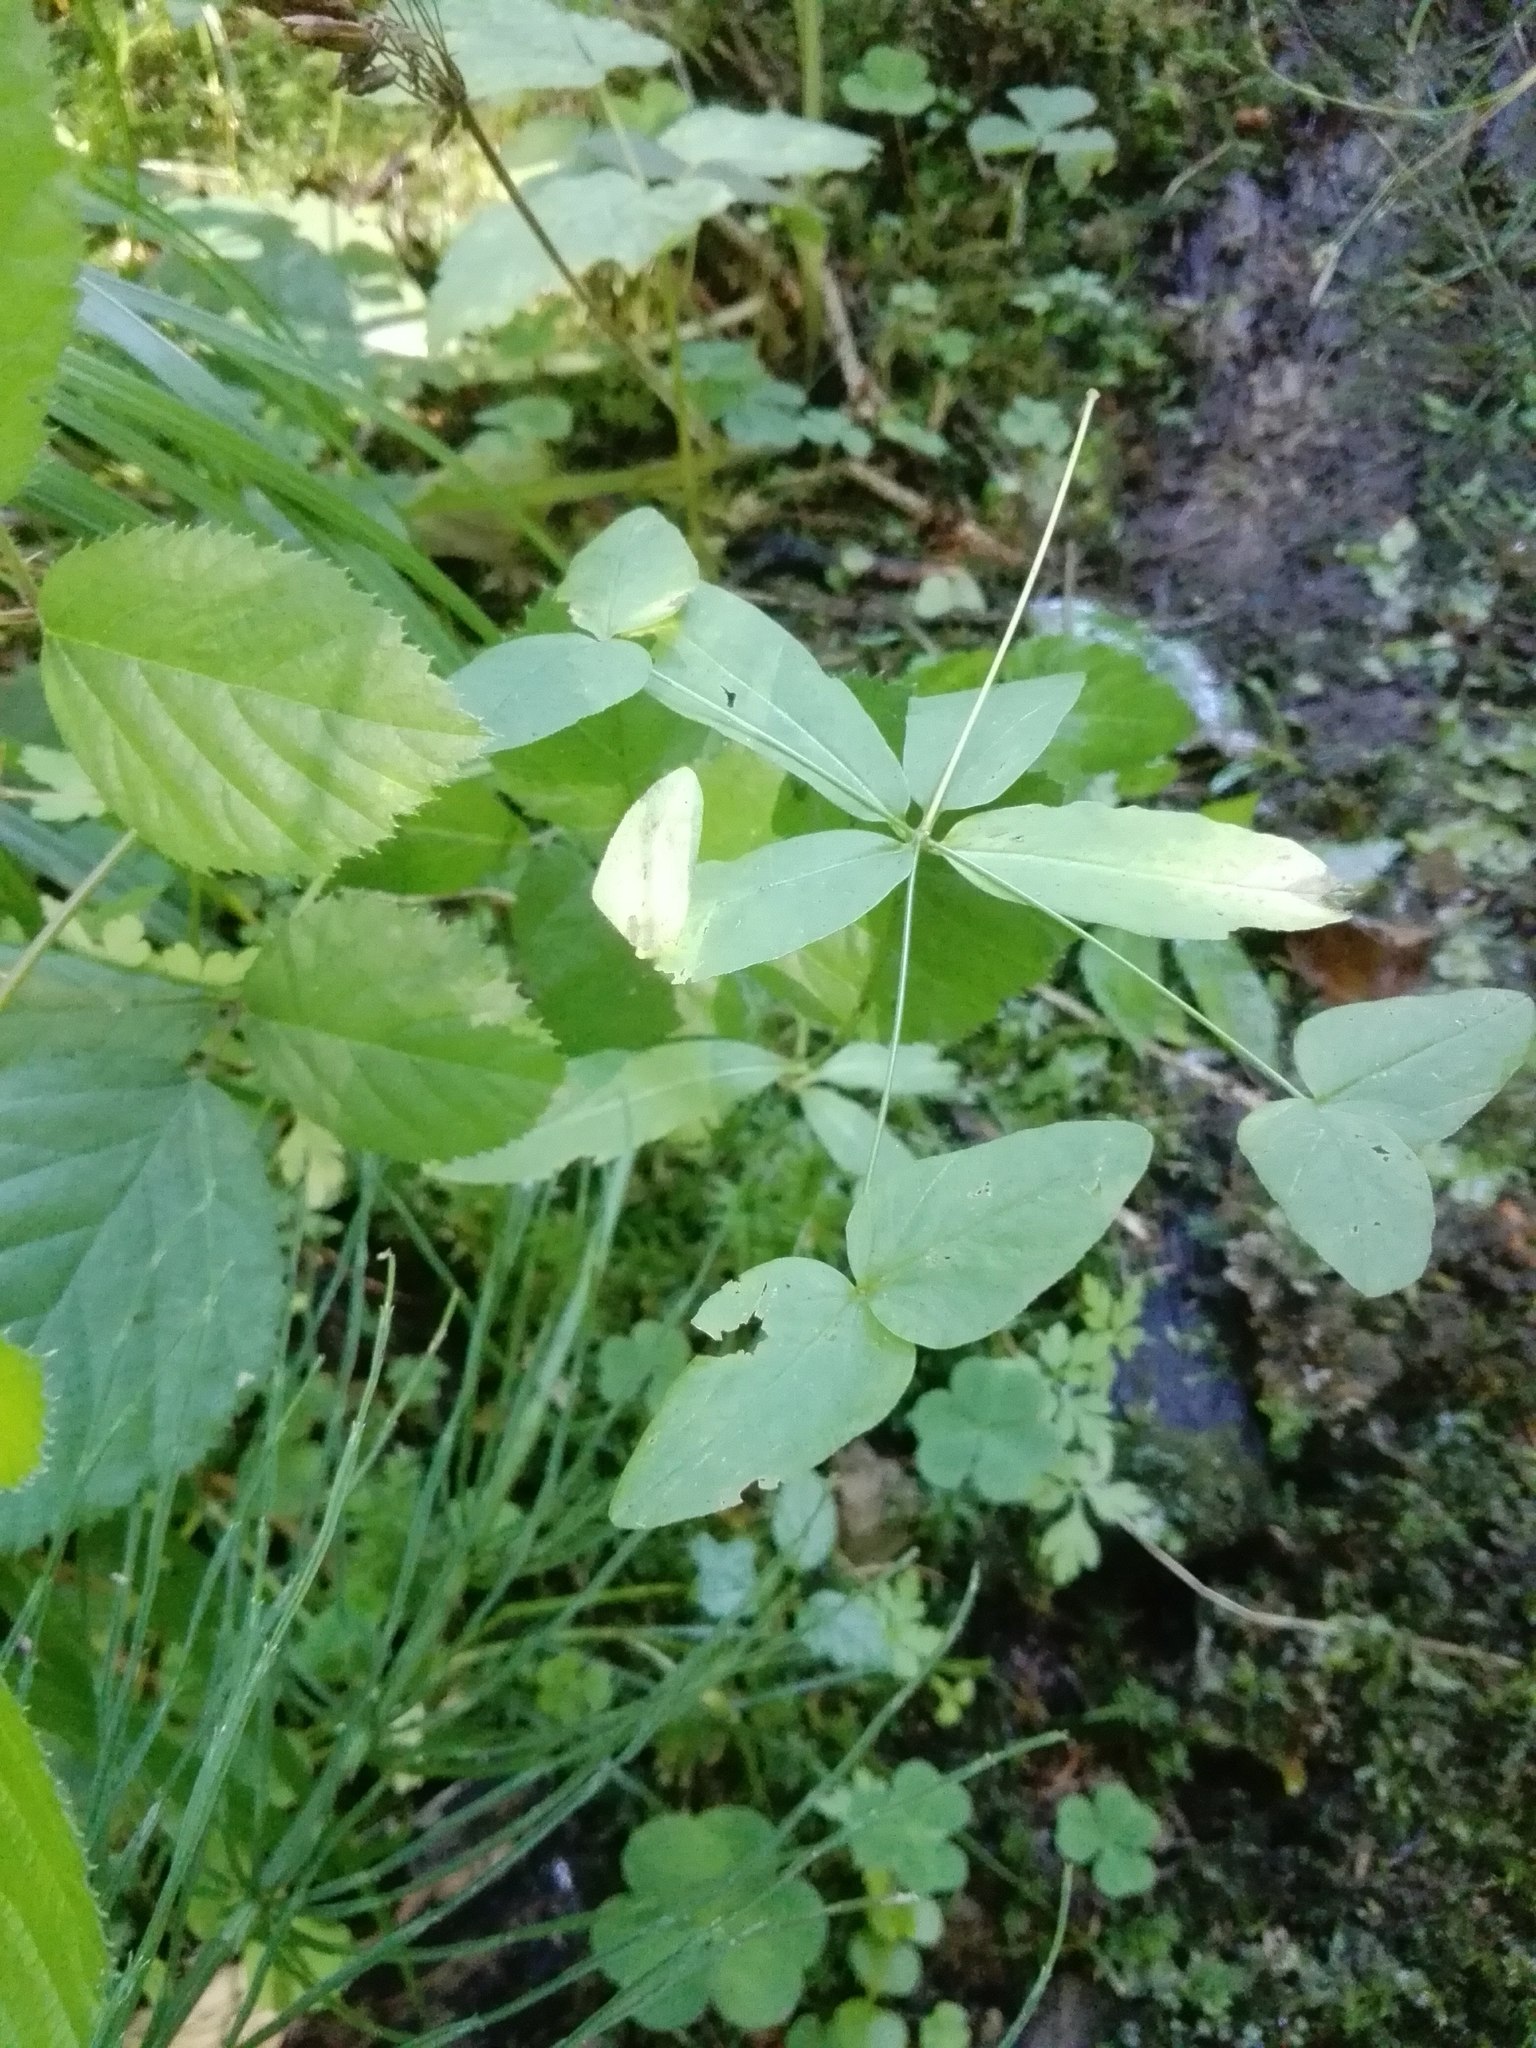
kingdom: Plantae
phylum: Tracheophyta
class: Magnoliopsida
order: Malpighiales
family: Euphorbiaceae
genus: Euphorbia
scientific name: Euphorbia dulcis
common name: Sweet spurge
